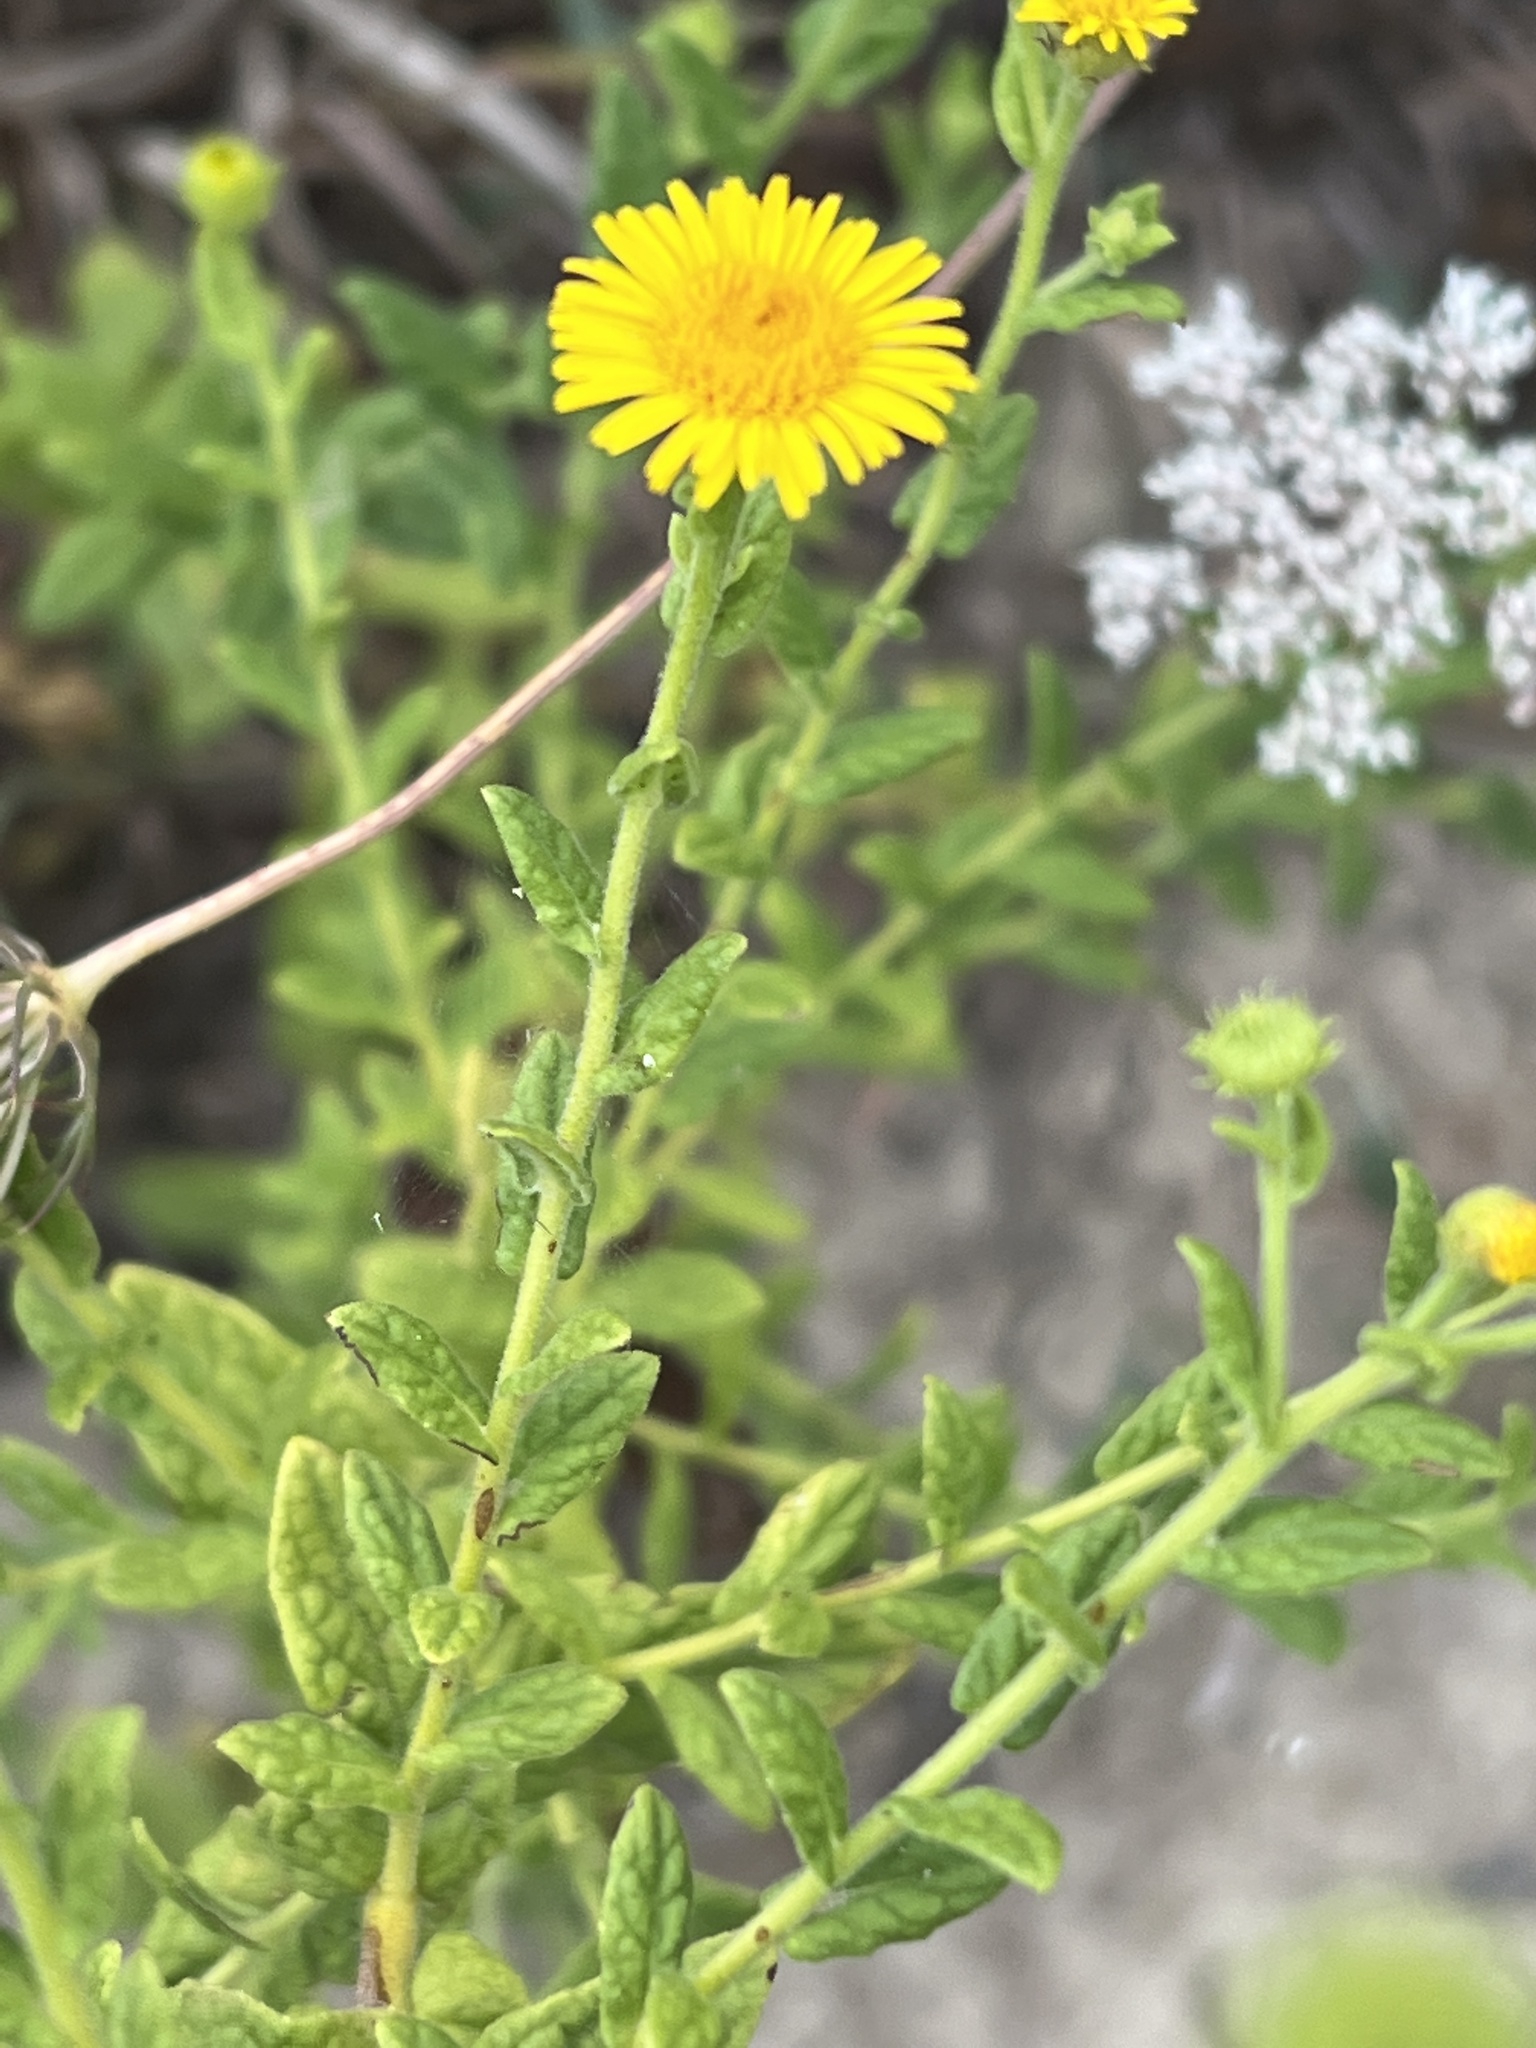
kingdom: Plantae
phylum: Tracheophyta
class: Magnoliopsida
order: Asterales
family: Asteraceae
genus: Pulicaria
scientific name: Pulicaria dysenterica
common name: Common fleabane
